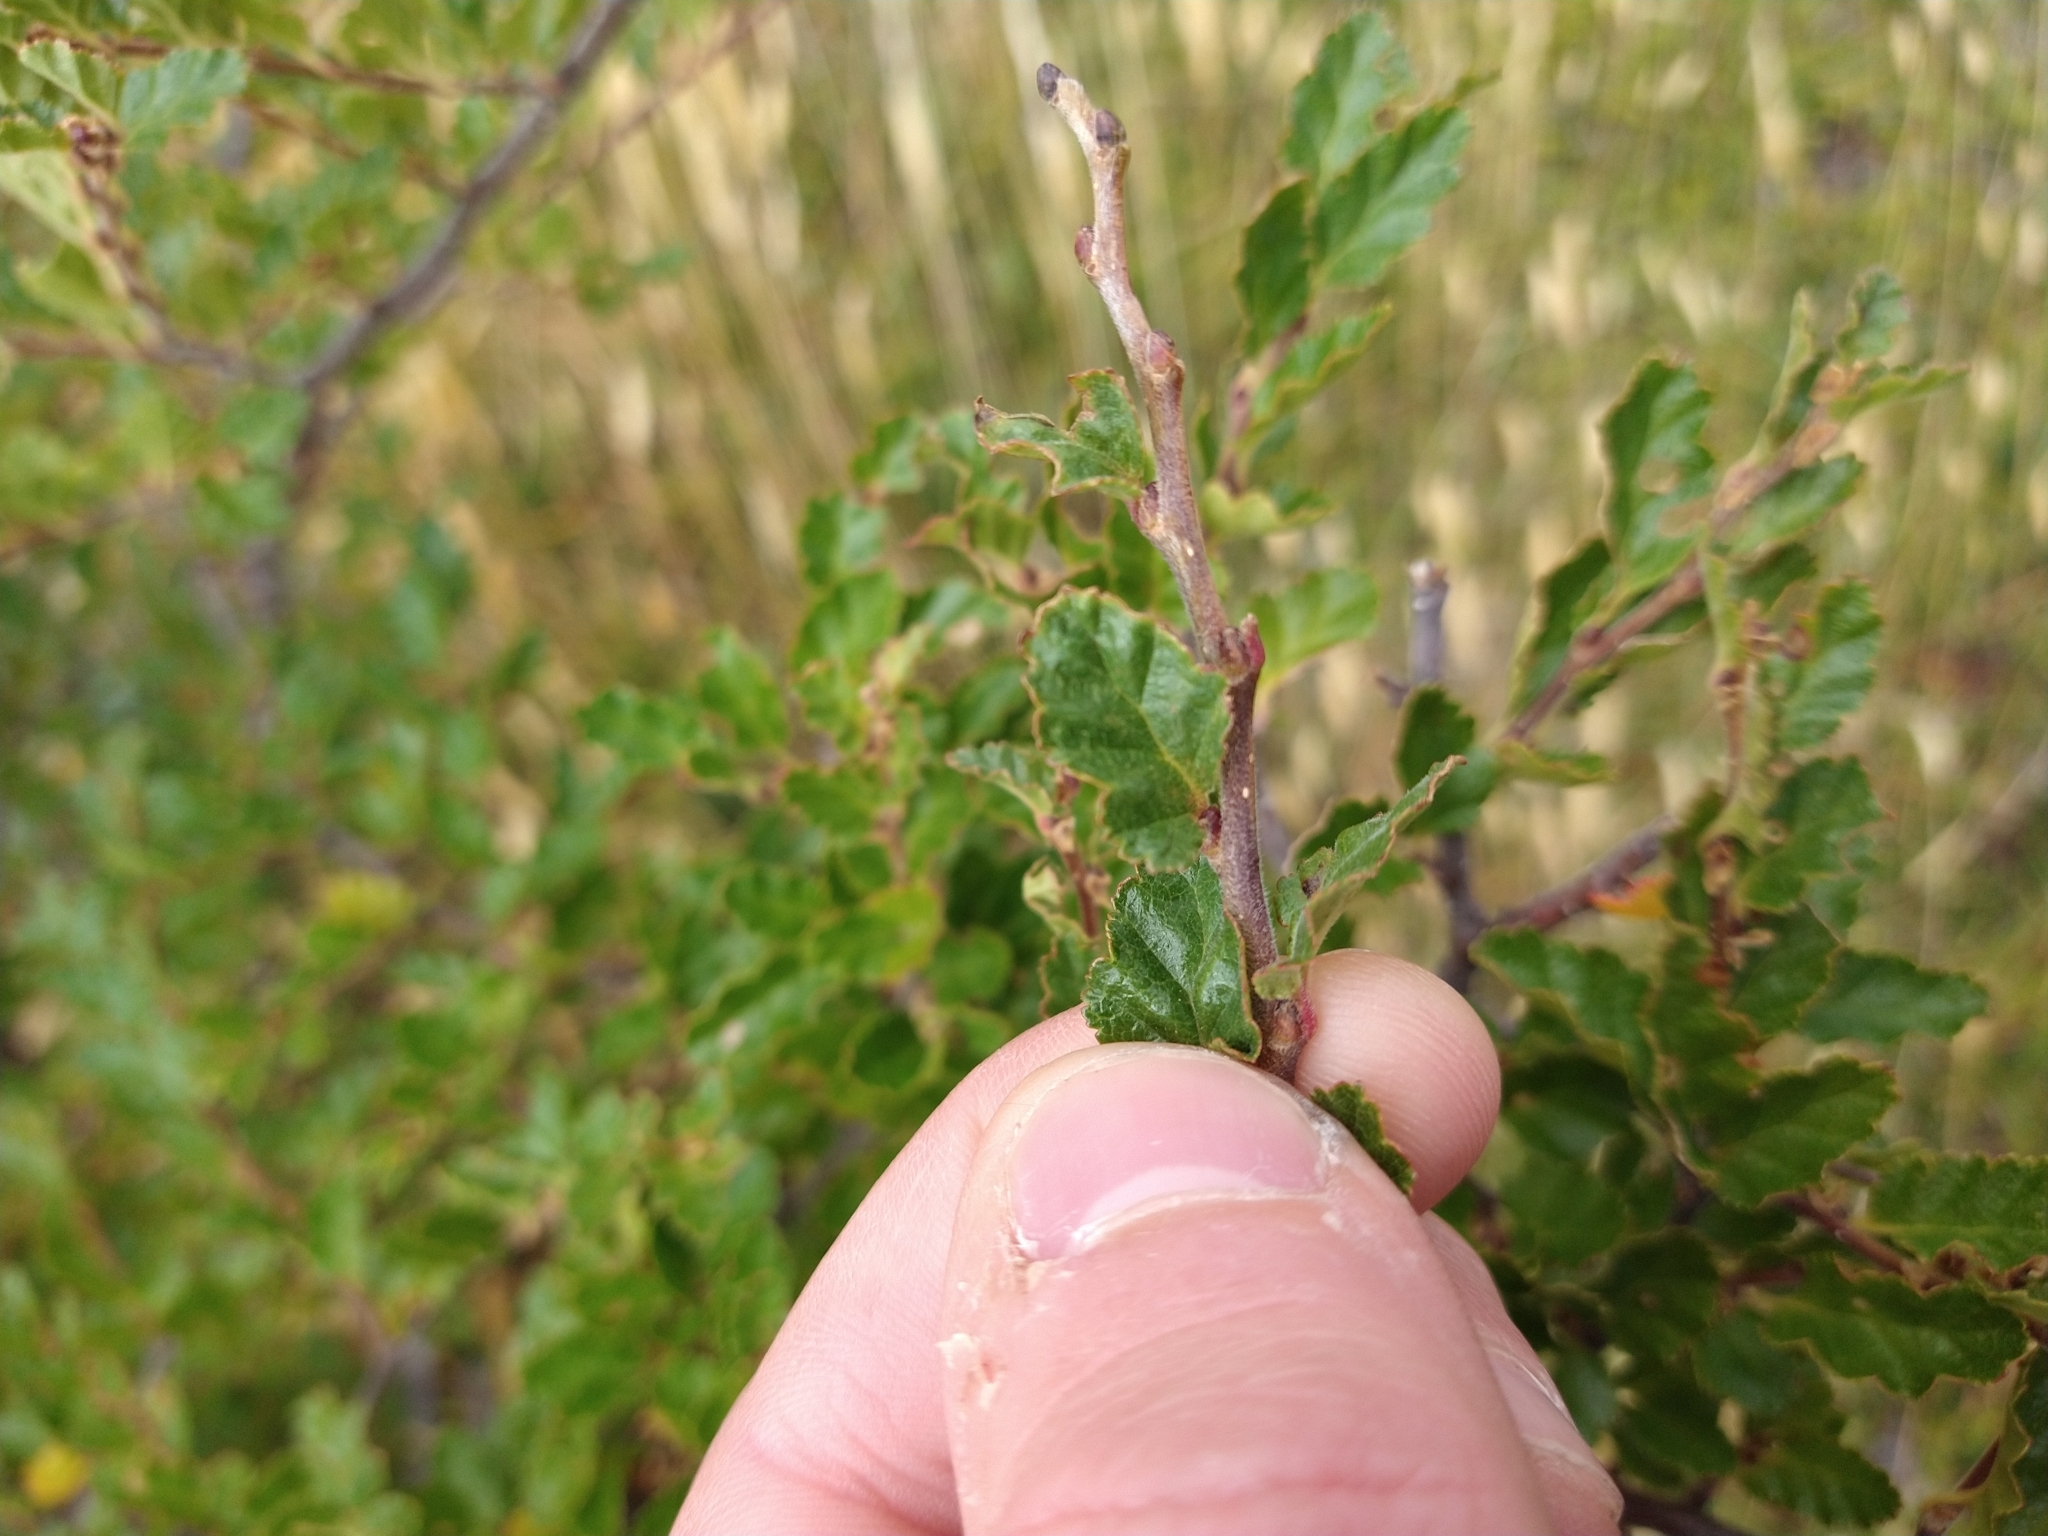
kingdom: Plantae
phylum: Tracheophyta
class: Magnoliopsida
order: Fagales
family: Nothofagaceae
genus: Nothofagus
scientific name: Nothofagus antarctica
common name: Antarctic beech
